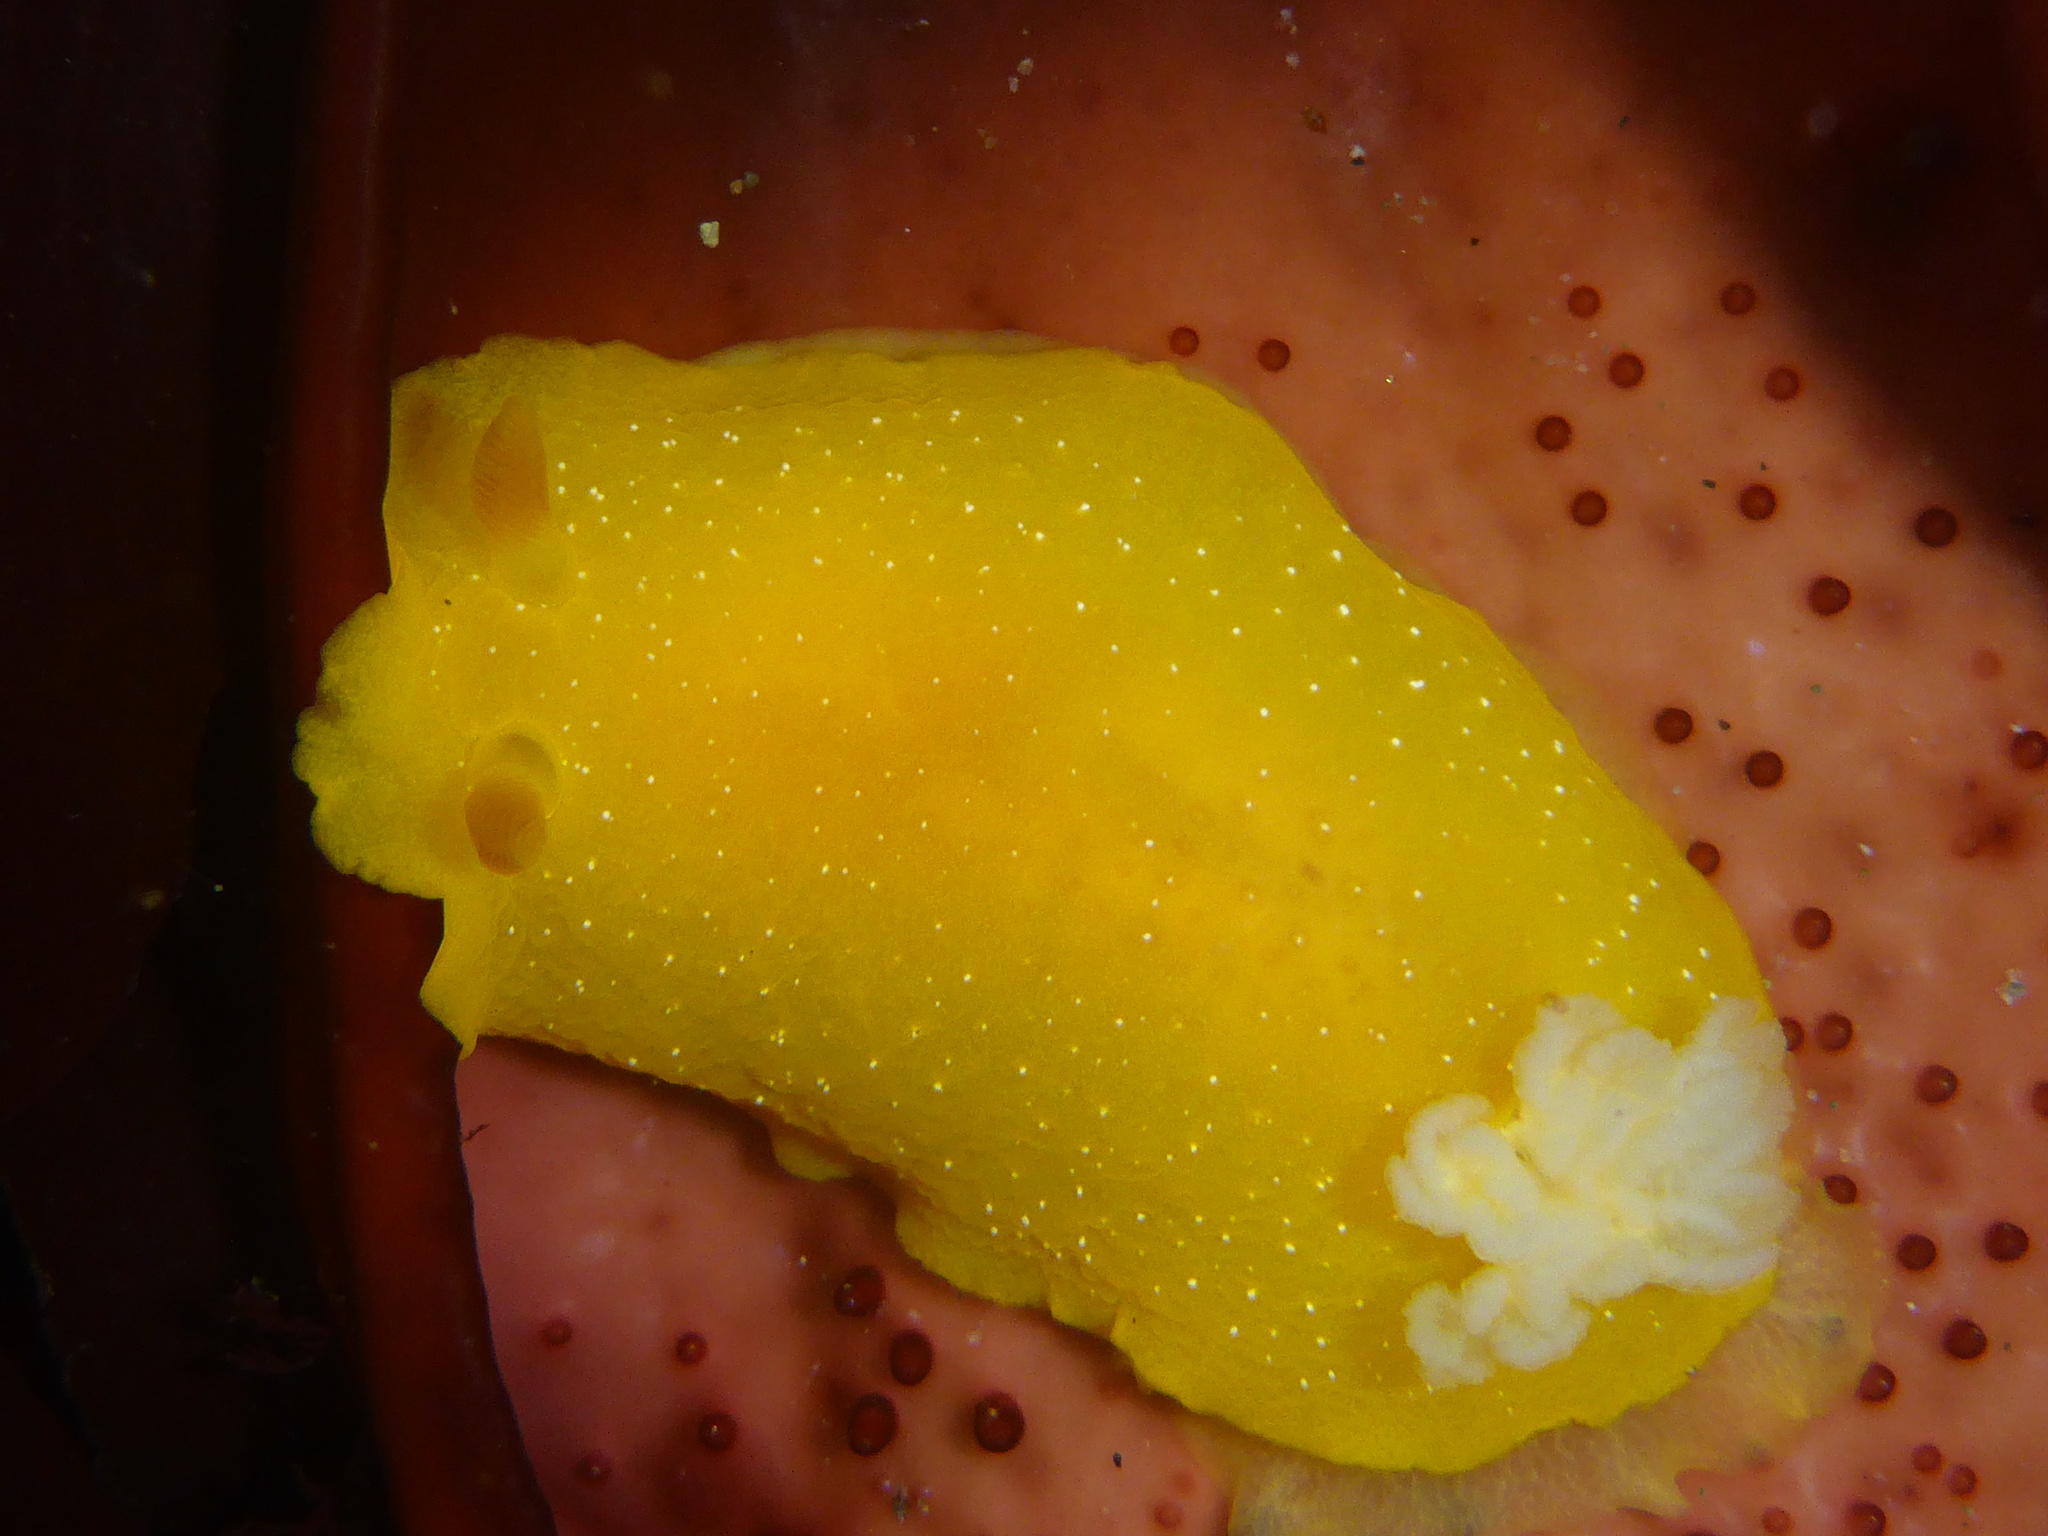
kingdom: Animalia
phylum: Mollusca
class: Gastropoda
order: Nudibranchia
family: Dendrodorididae
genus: Doriopsilla
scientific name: Doriopsilla fulva
